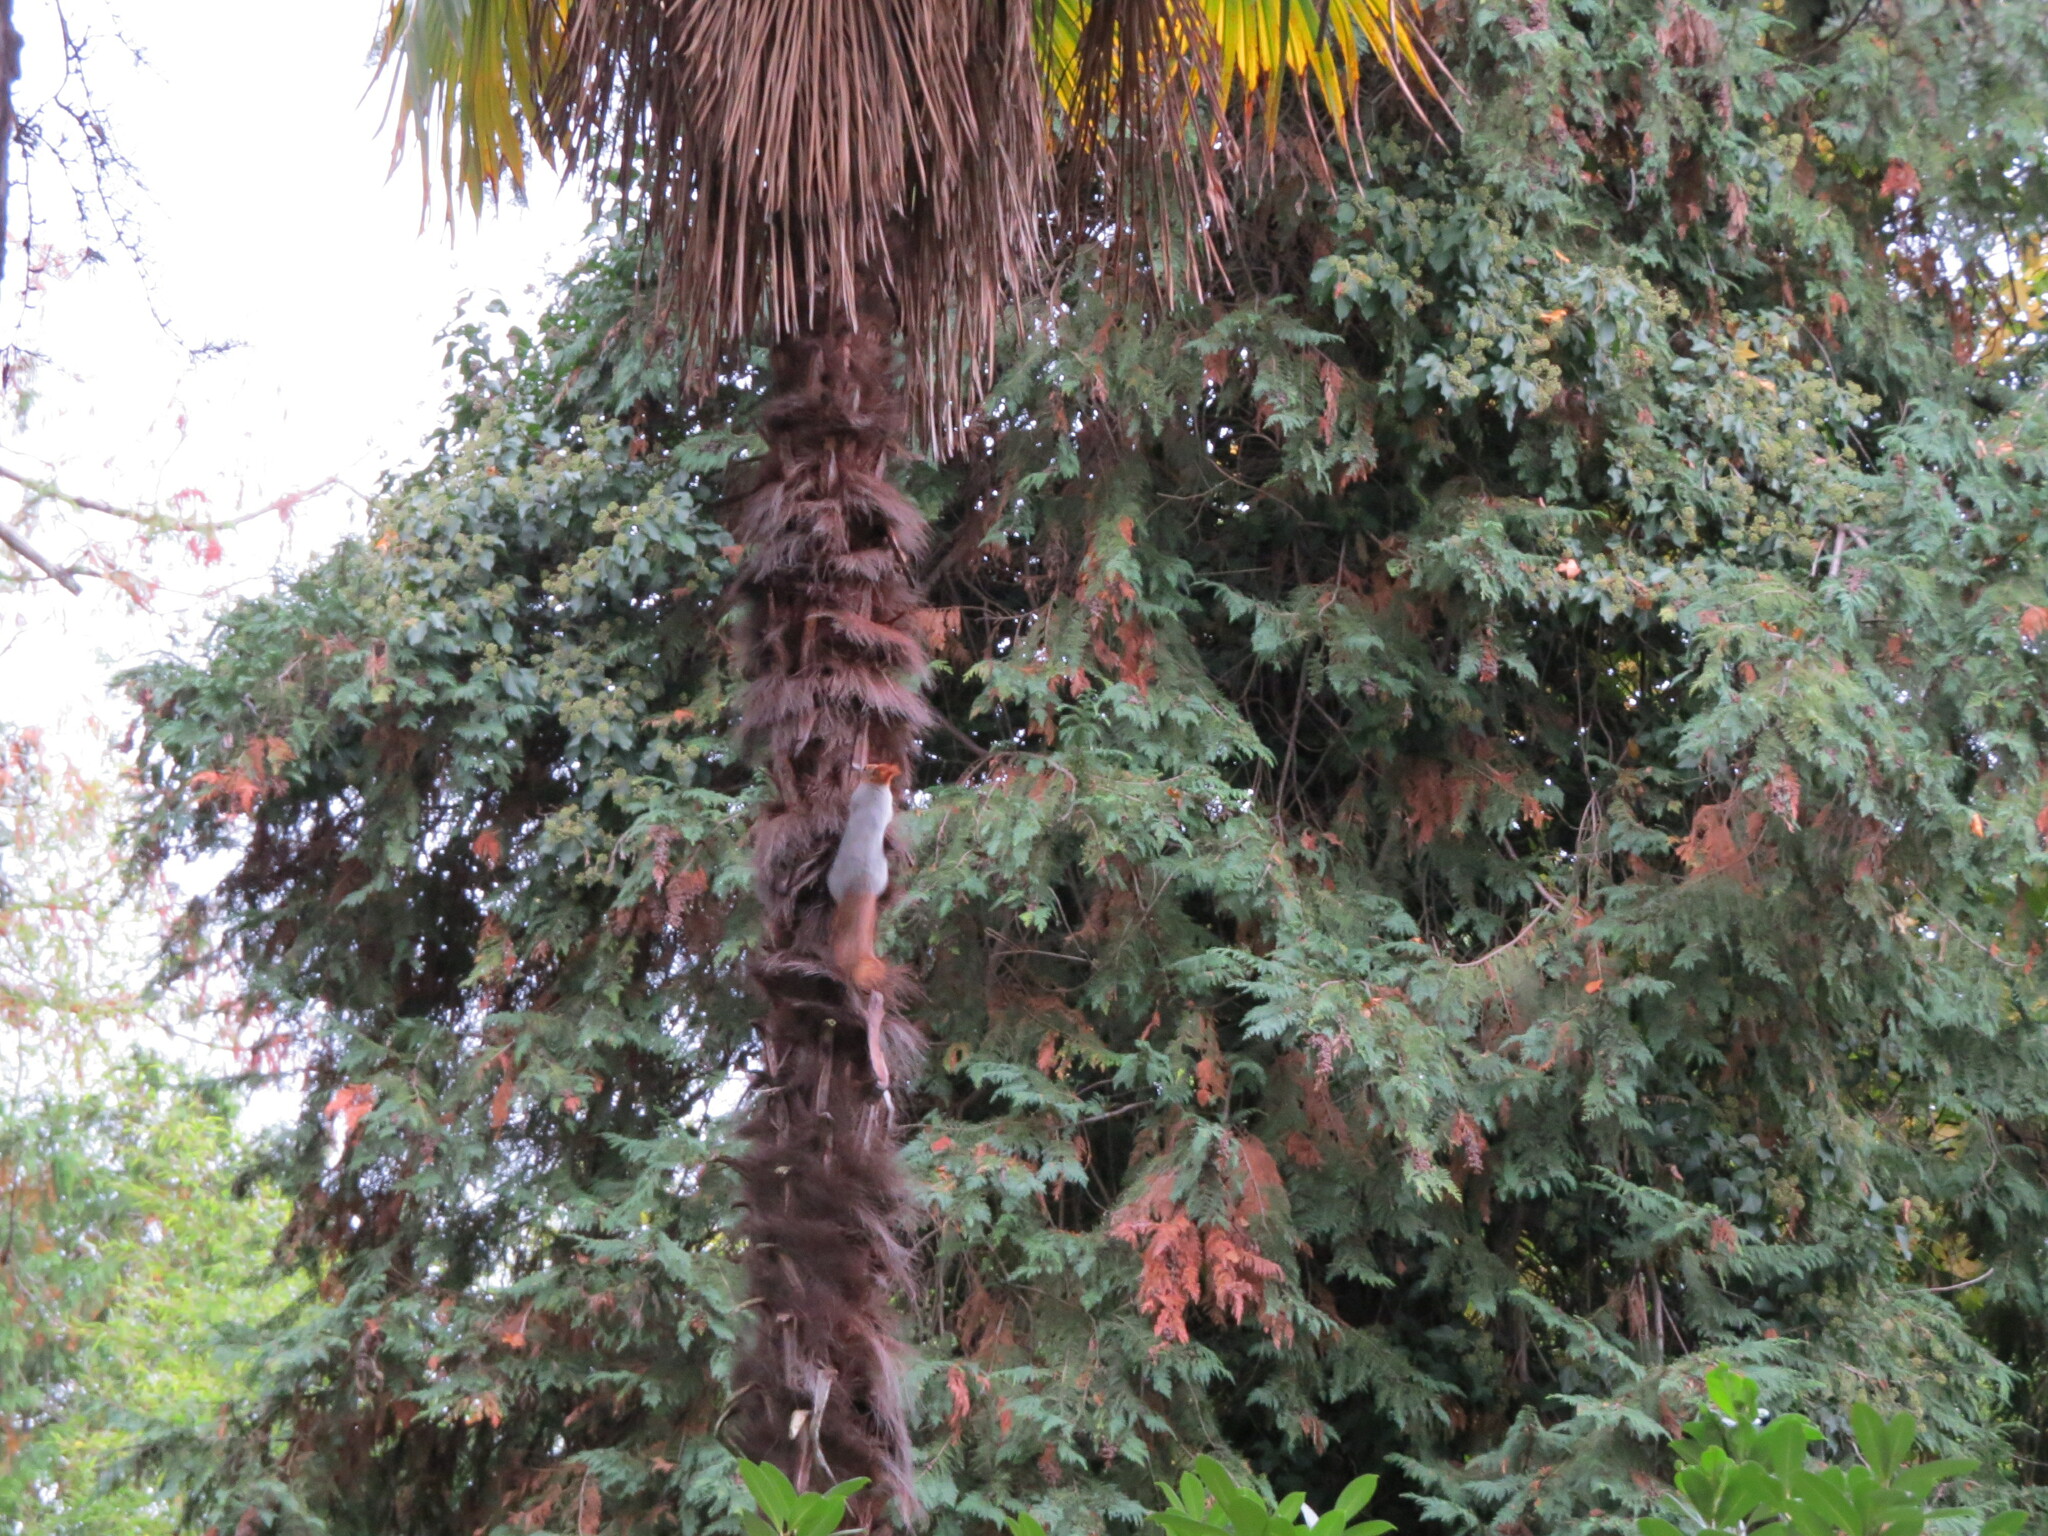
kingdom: Animalia
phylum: Chordata
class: Mammalia
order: Rodentia
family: Sciuridae
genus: Sciurus
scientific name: Sciurus vulgaris
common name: Eurasian red squirrel
